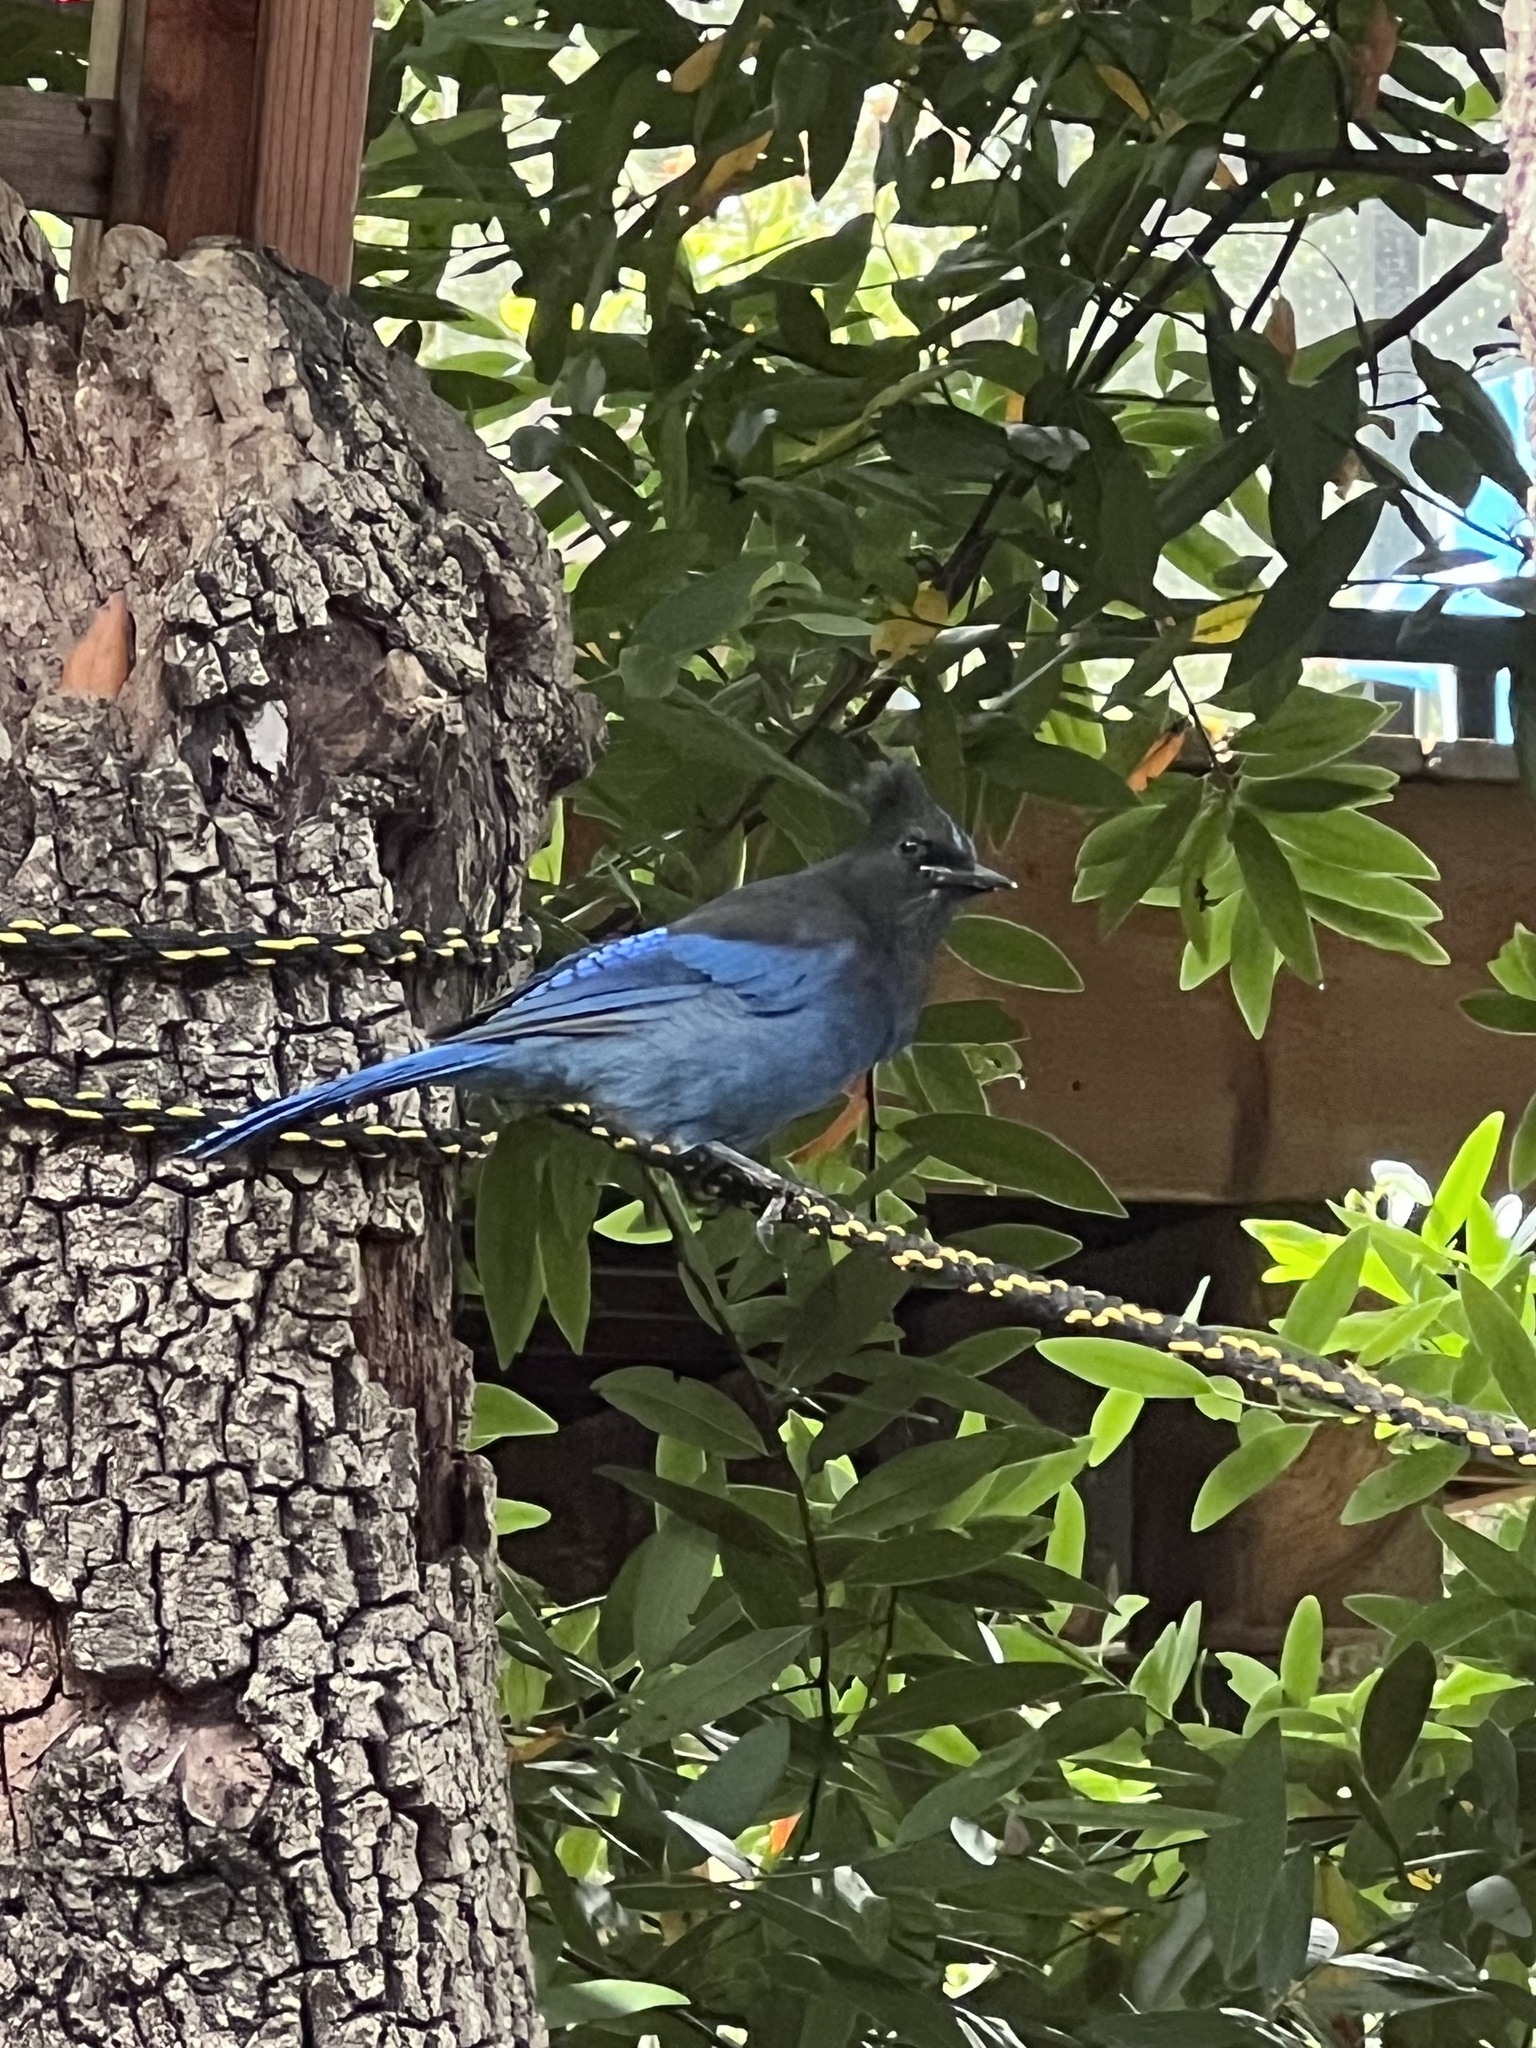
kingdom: Animalia
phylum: Chordata
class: Aves
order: Passeriformes
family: Corvidae
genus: Cyanocitta
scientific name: Cyanocitta stelleri
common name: Steller's jay
